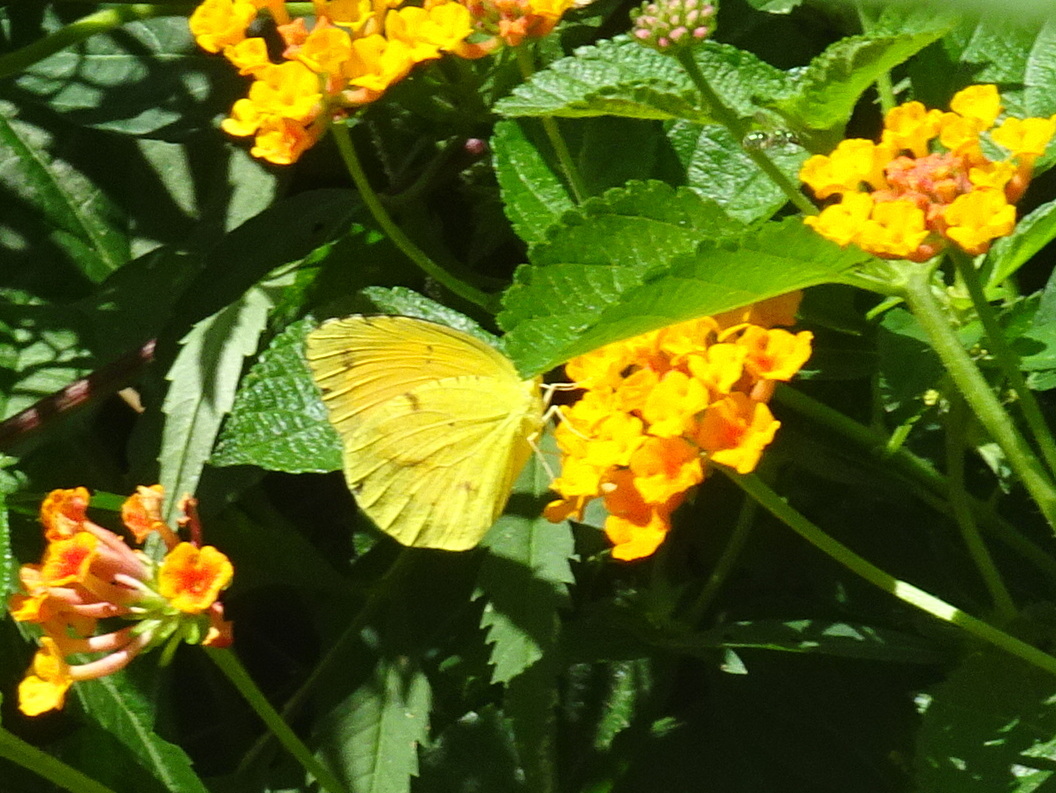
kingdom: Animalia
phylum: Arthropoda
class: Insecta
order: Lepidoptera
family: Pieridae
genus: Abaeis
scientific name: Abaeis nicippe
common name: Sleepy orange
